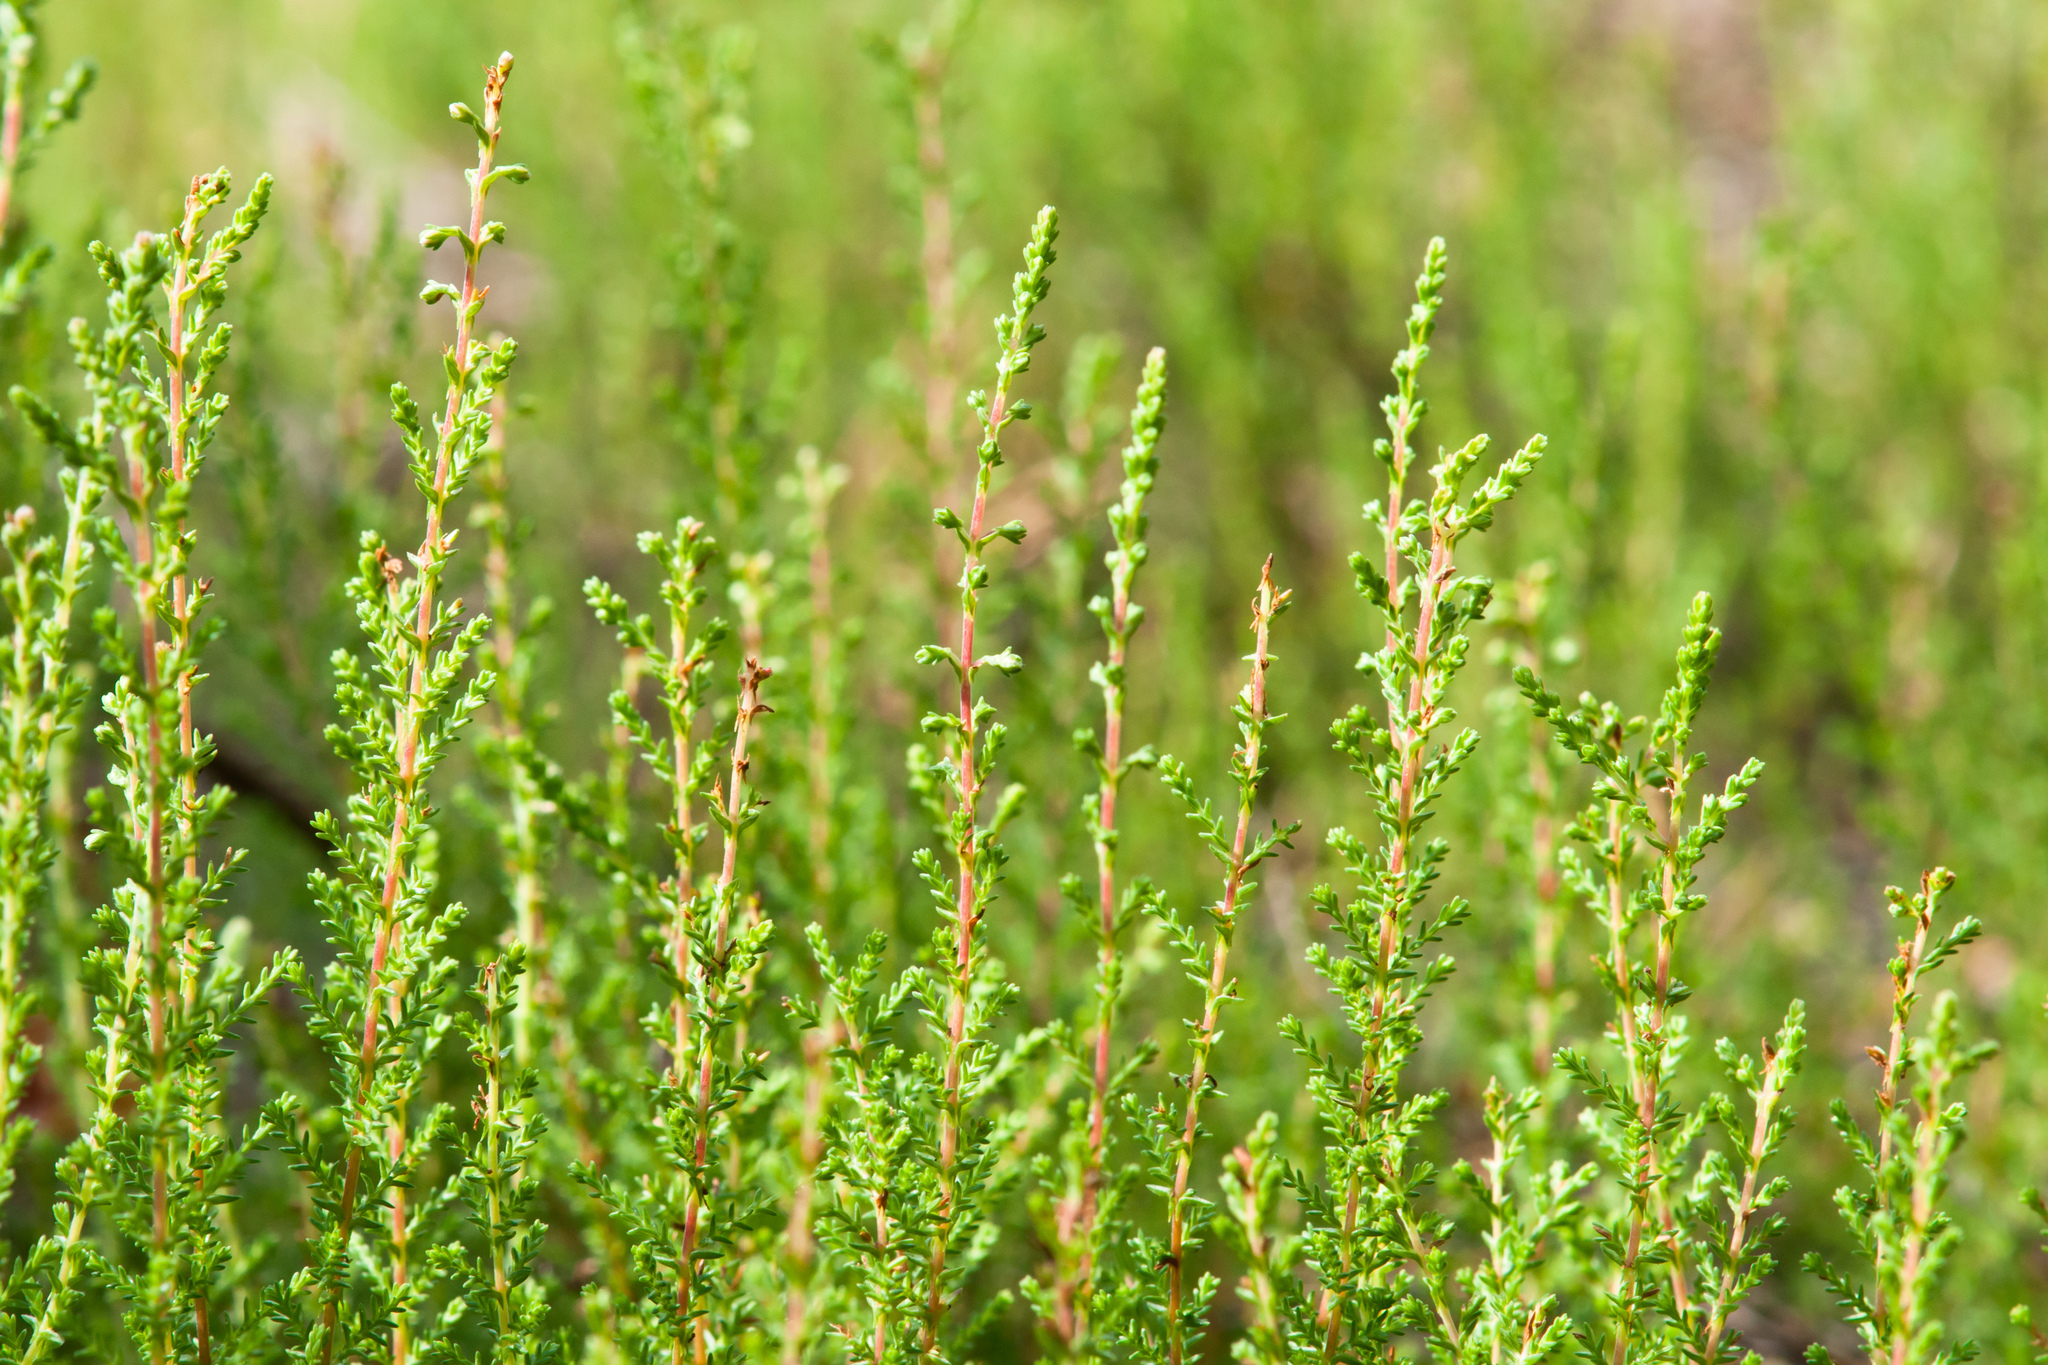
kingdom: Plantae
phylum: Tracheophyta
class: Magnoliopsida
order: Ericales
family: Ericaceae
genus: Calluna
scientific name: Calluna vulgaris
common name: Heather
